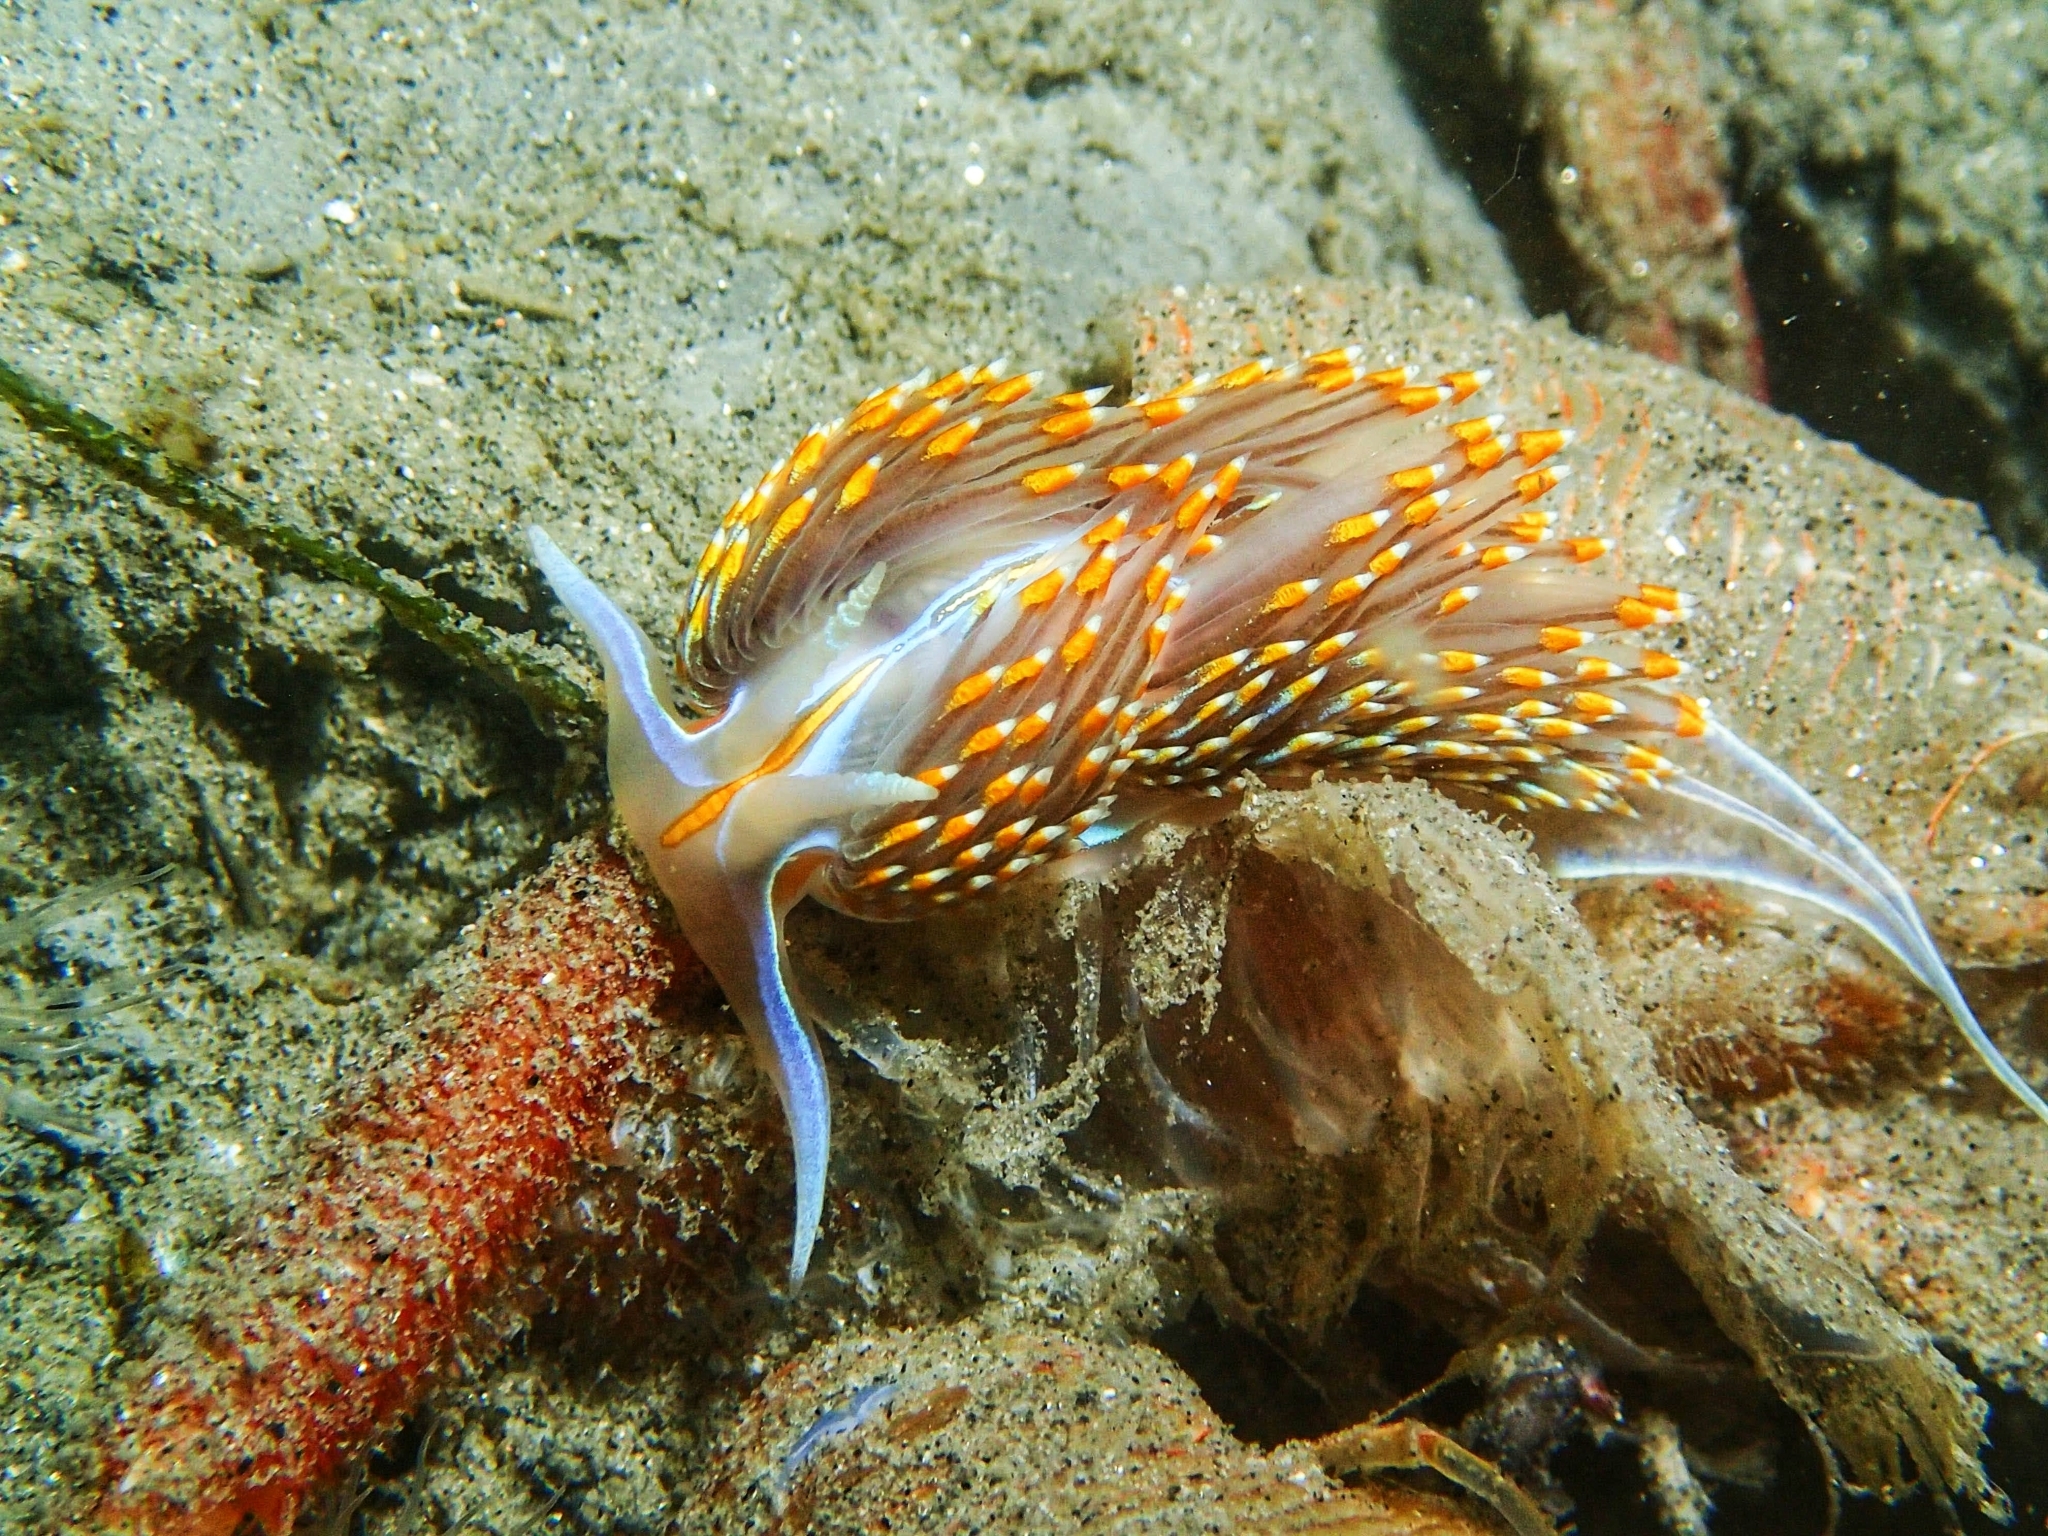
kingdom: Animalia
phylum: Mollusca
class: Gastropoda
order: Nudibranchia
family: Myrrhinidae
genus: Hermissenda
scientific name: Hermissenda opalescens
